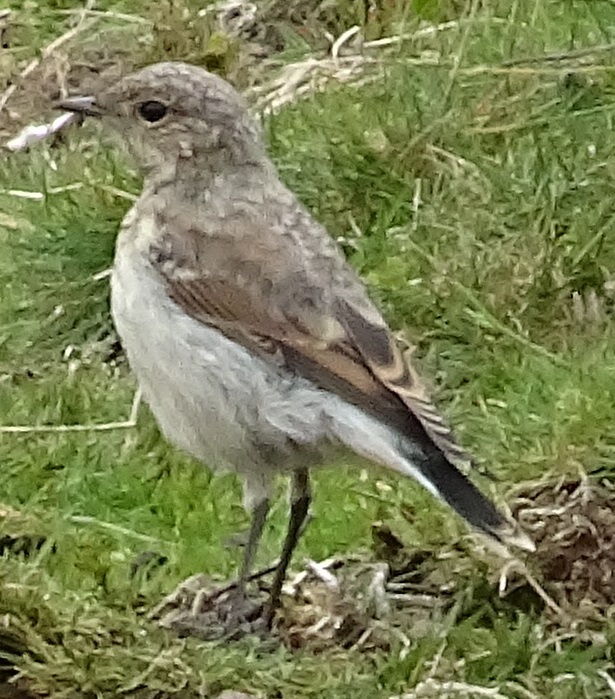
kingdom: Animalia
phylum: Chordata
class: Aves
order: Passeriformes
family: Muscicapidae
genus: Oenanthe
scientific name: Oenanthe oenanthe
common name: Northern wheatear
